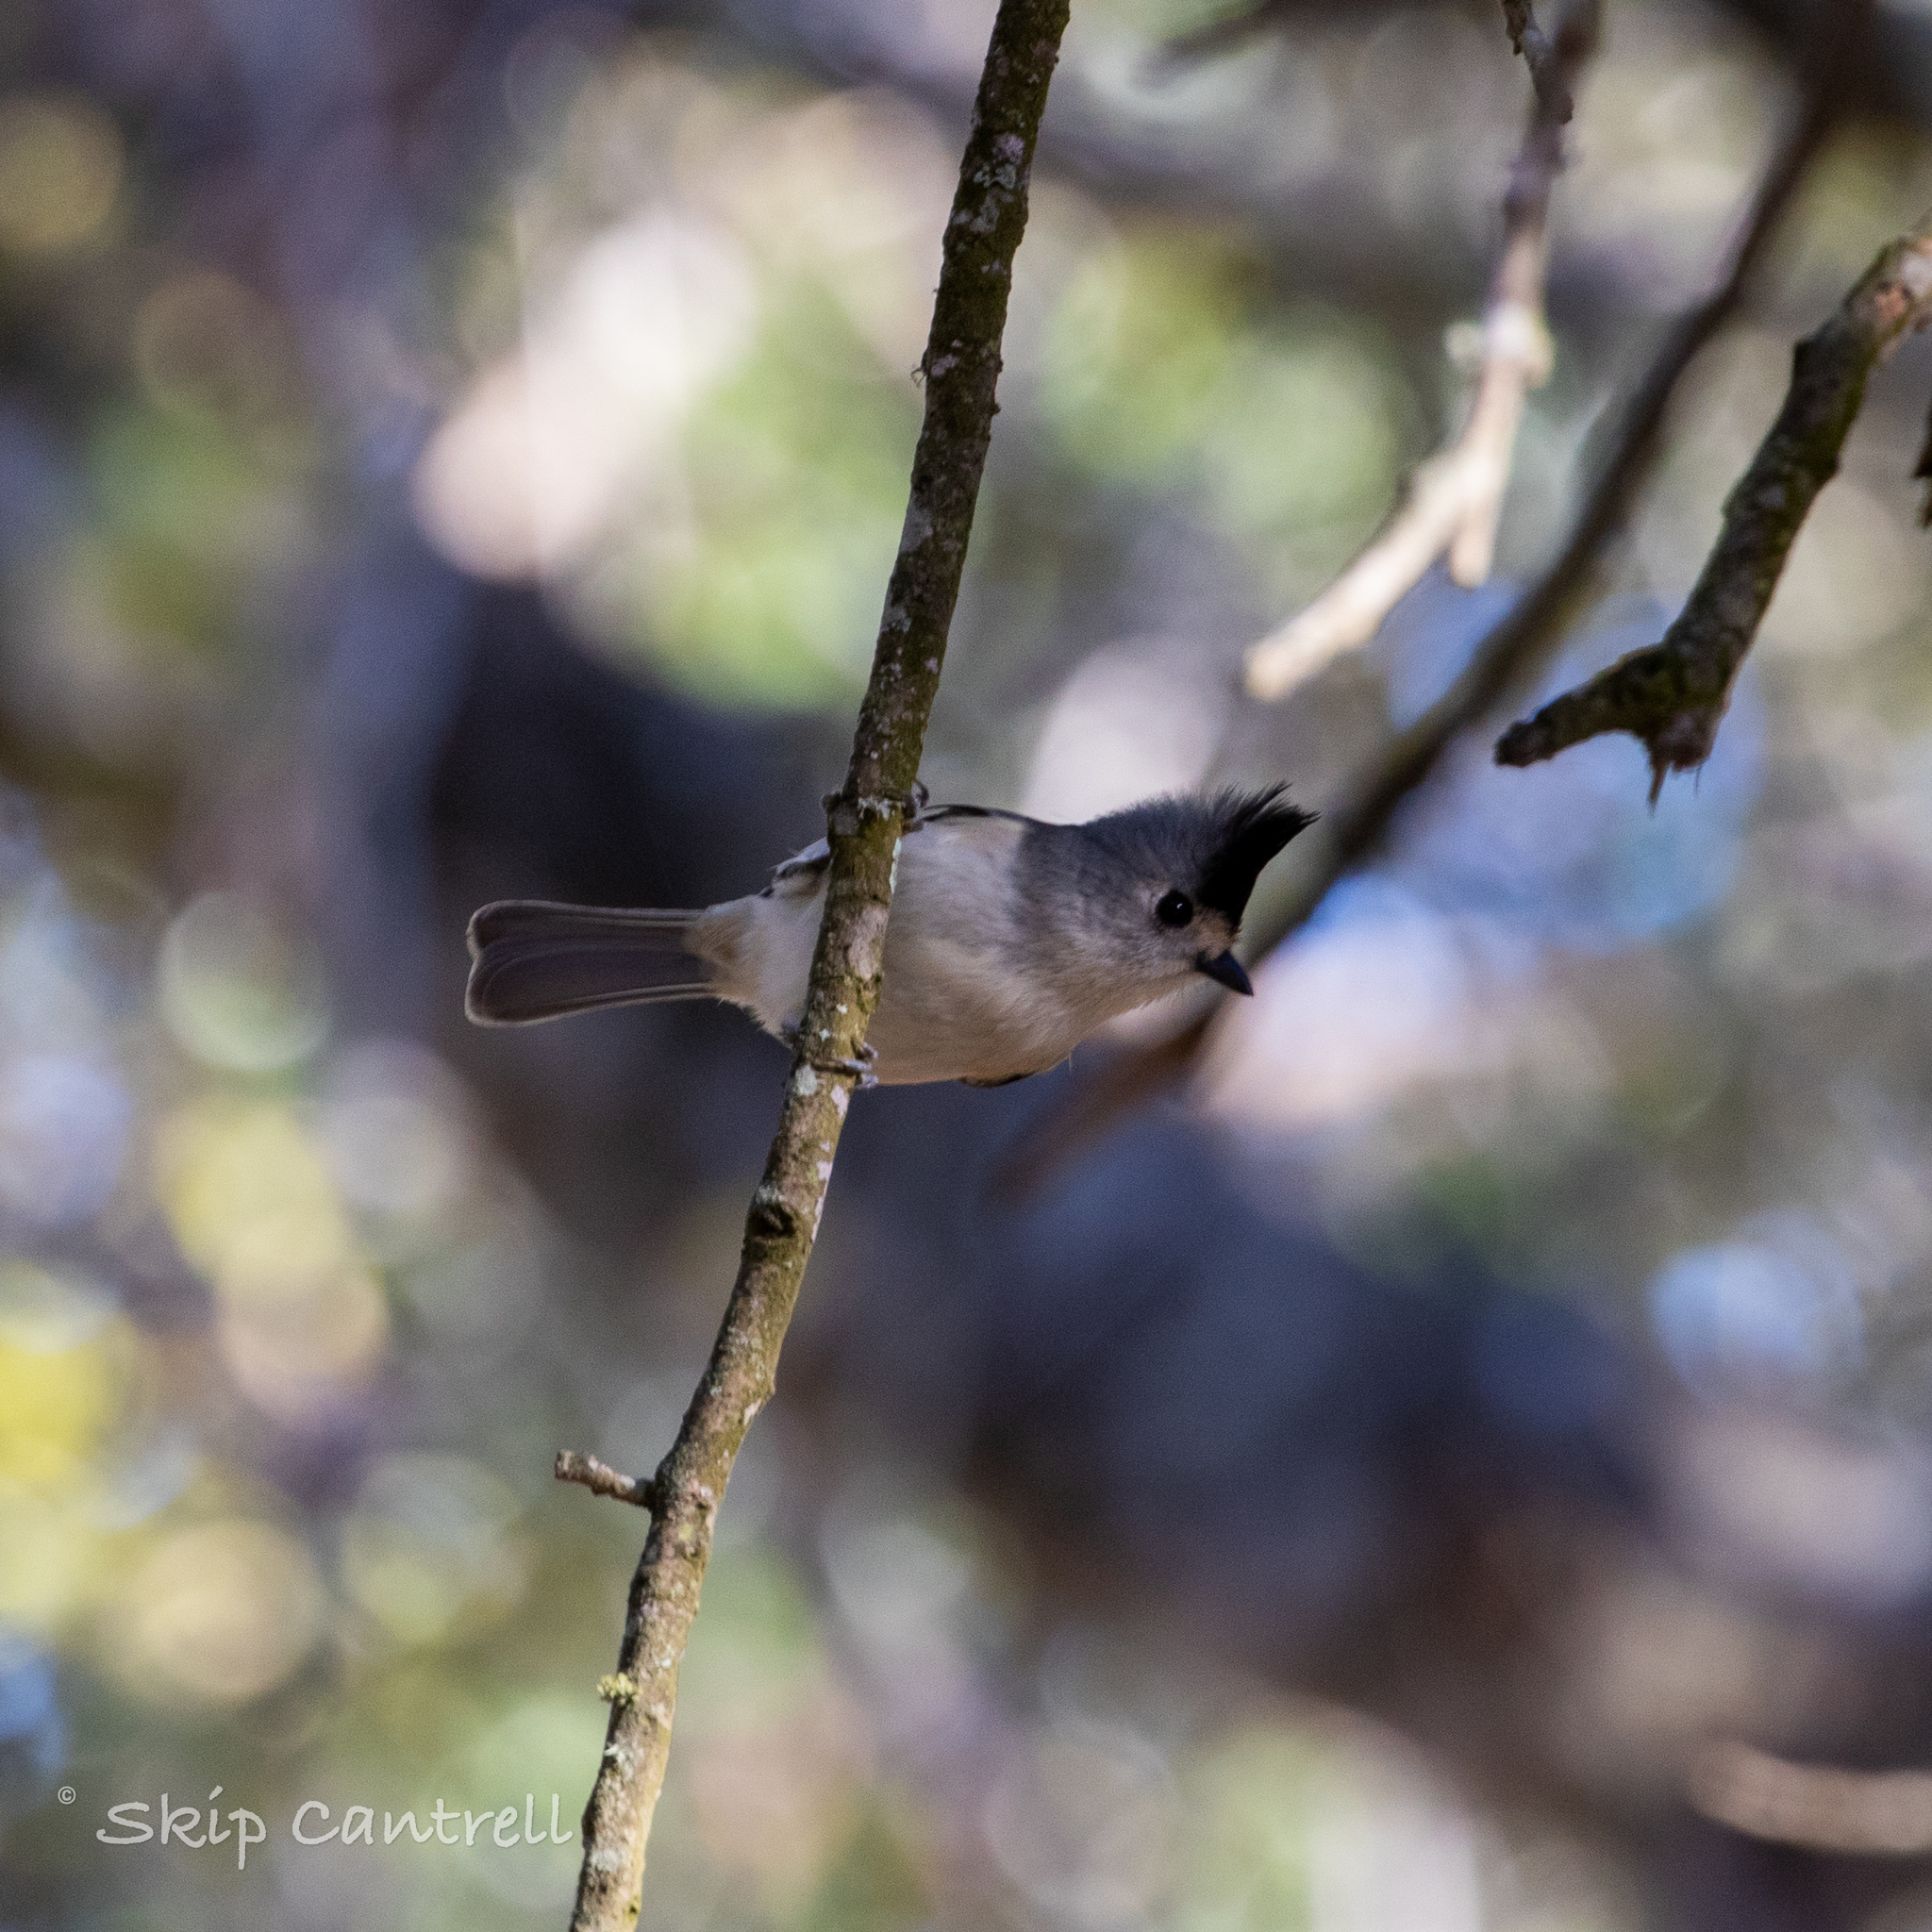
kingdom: Animalia
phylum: Chordata
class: Aves
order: Passeriformes
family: Paridae
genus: Baeolophus
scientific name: Baeolophus atricristatus
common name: Black-crested titmouse
